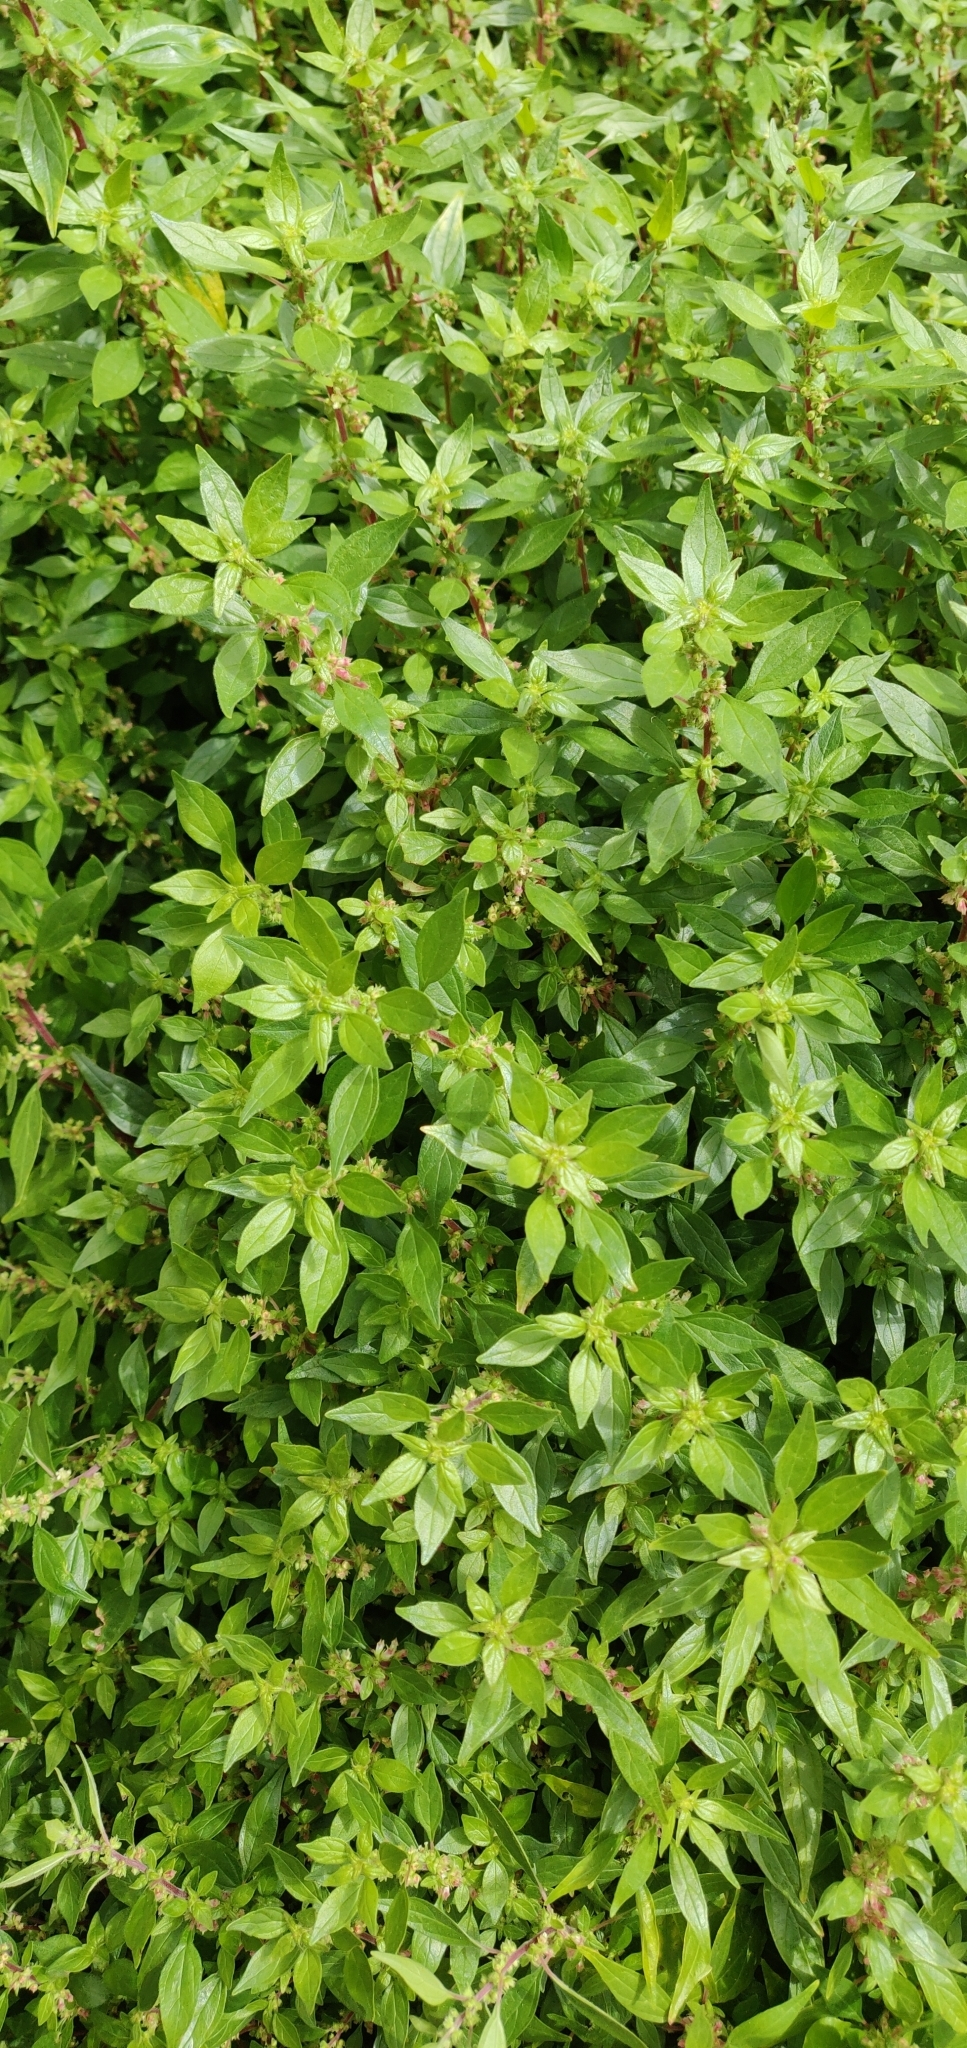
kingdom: Plantae
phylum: Tracheophyta
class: Magnoliopsida
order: Rosales
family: Urticaceae
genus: Parietaria
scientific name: Parietaria judaica
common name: Pellitory-of-the-wall
